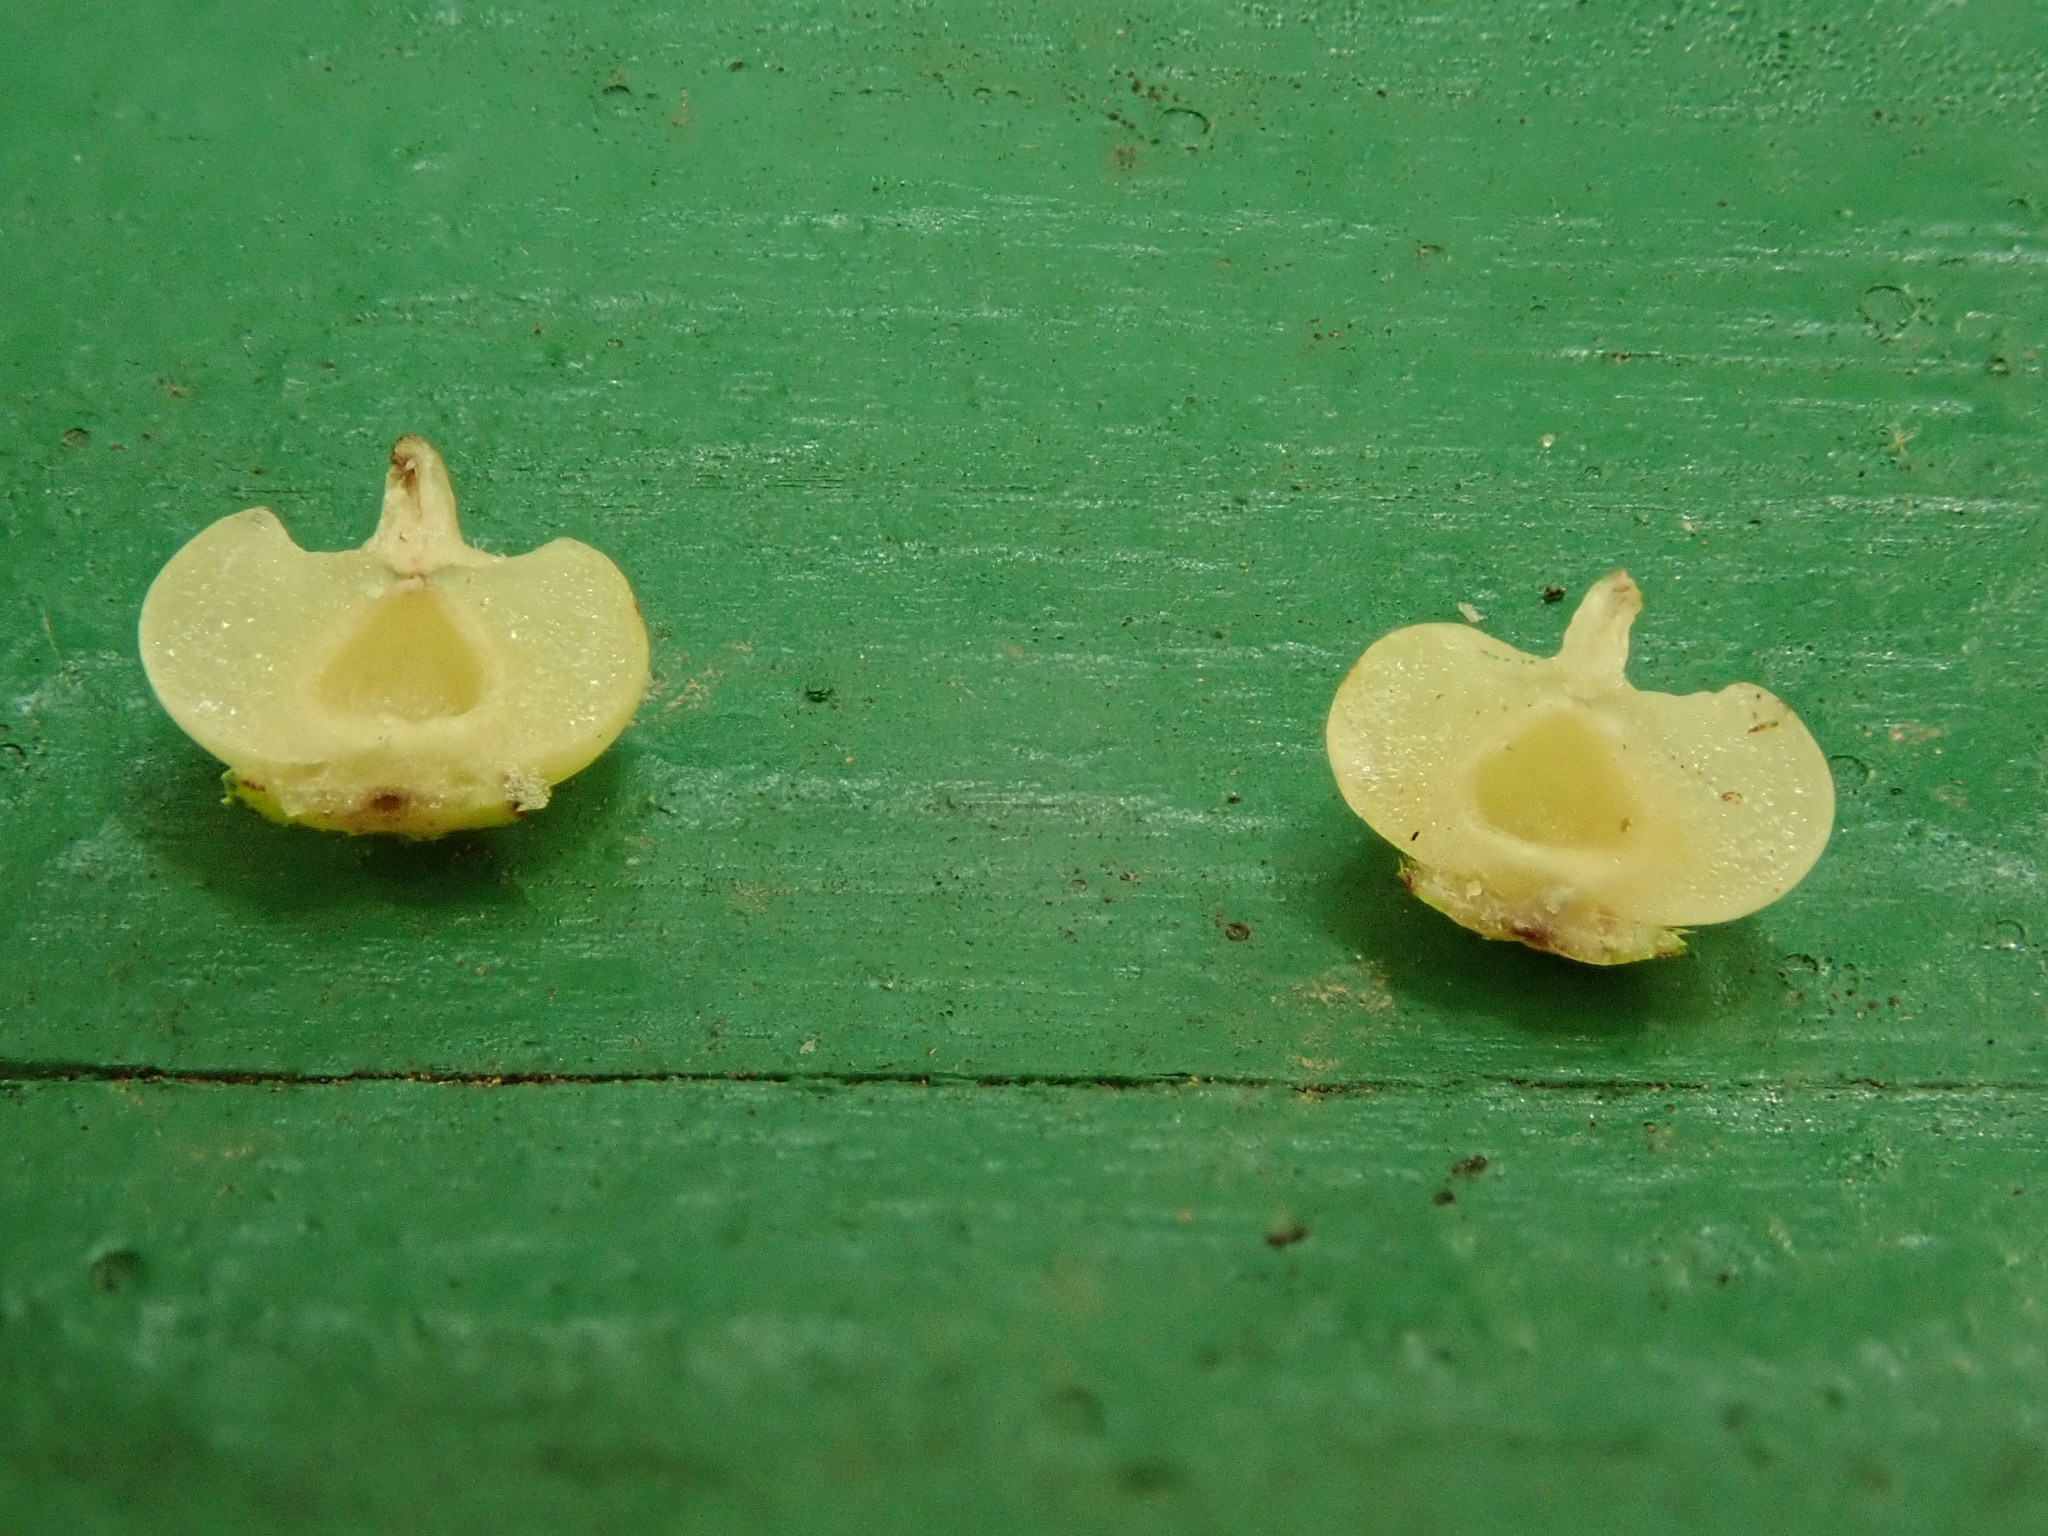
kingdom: Animalia
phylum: Arthropoda
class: Insecta
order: Diptera
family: Cecidomyiidae
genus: Caryomyia
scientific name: Caryomyia biretta
